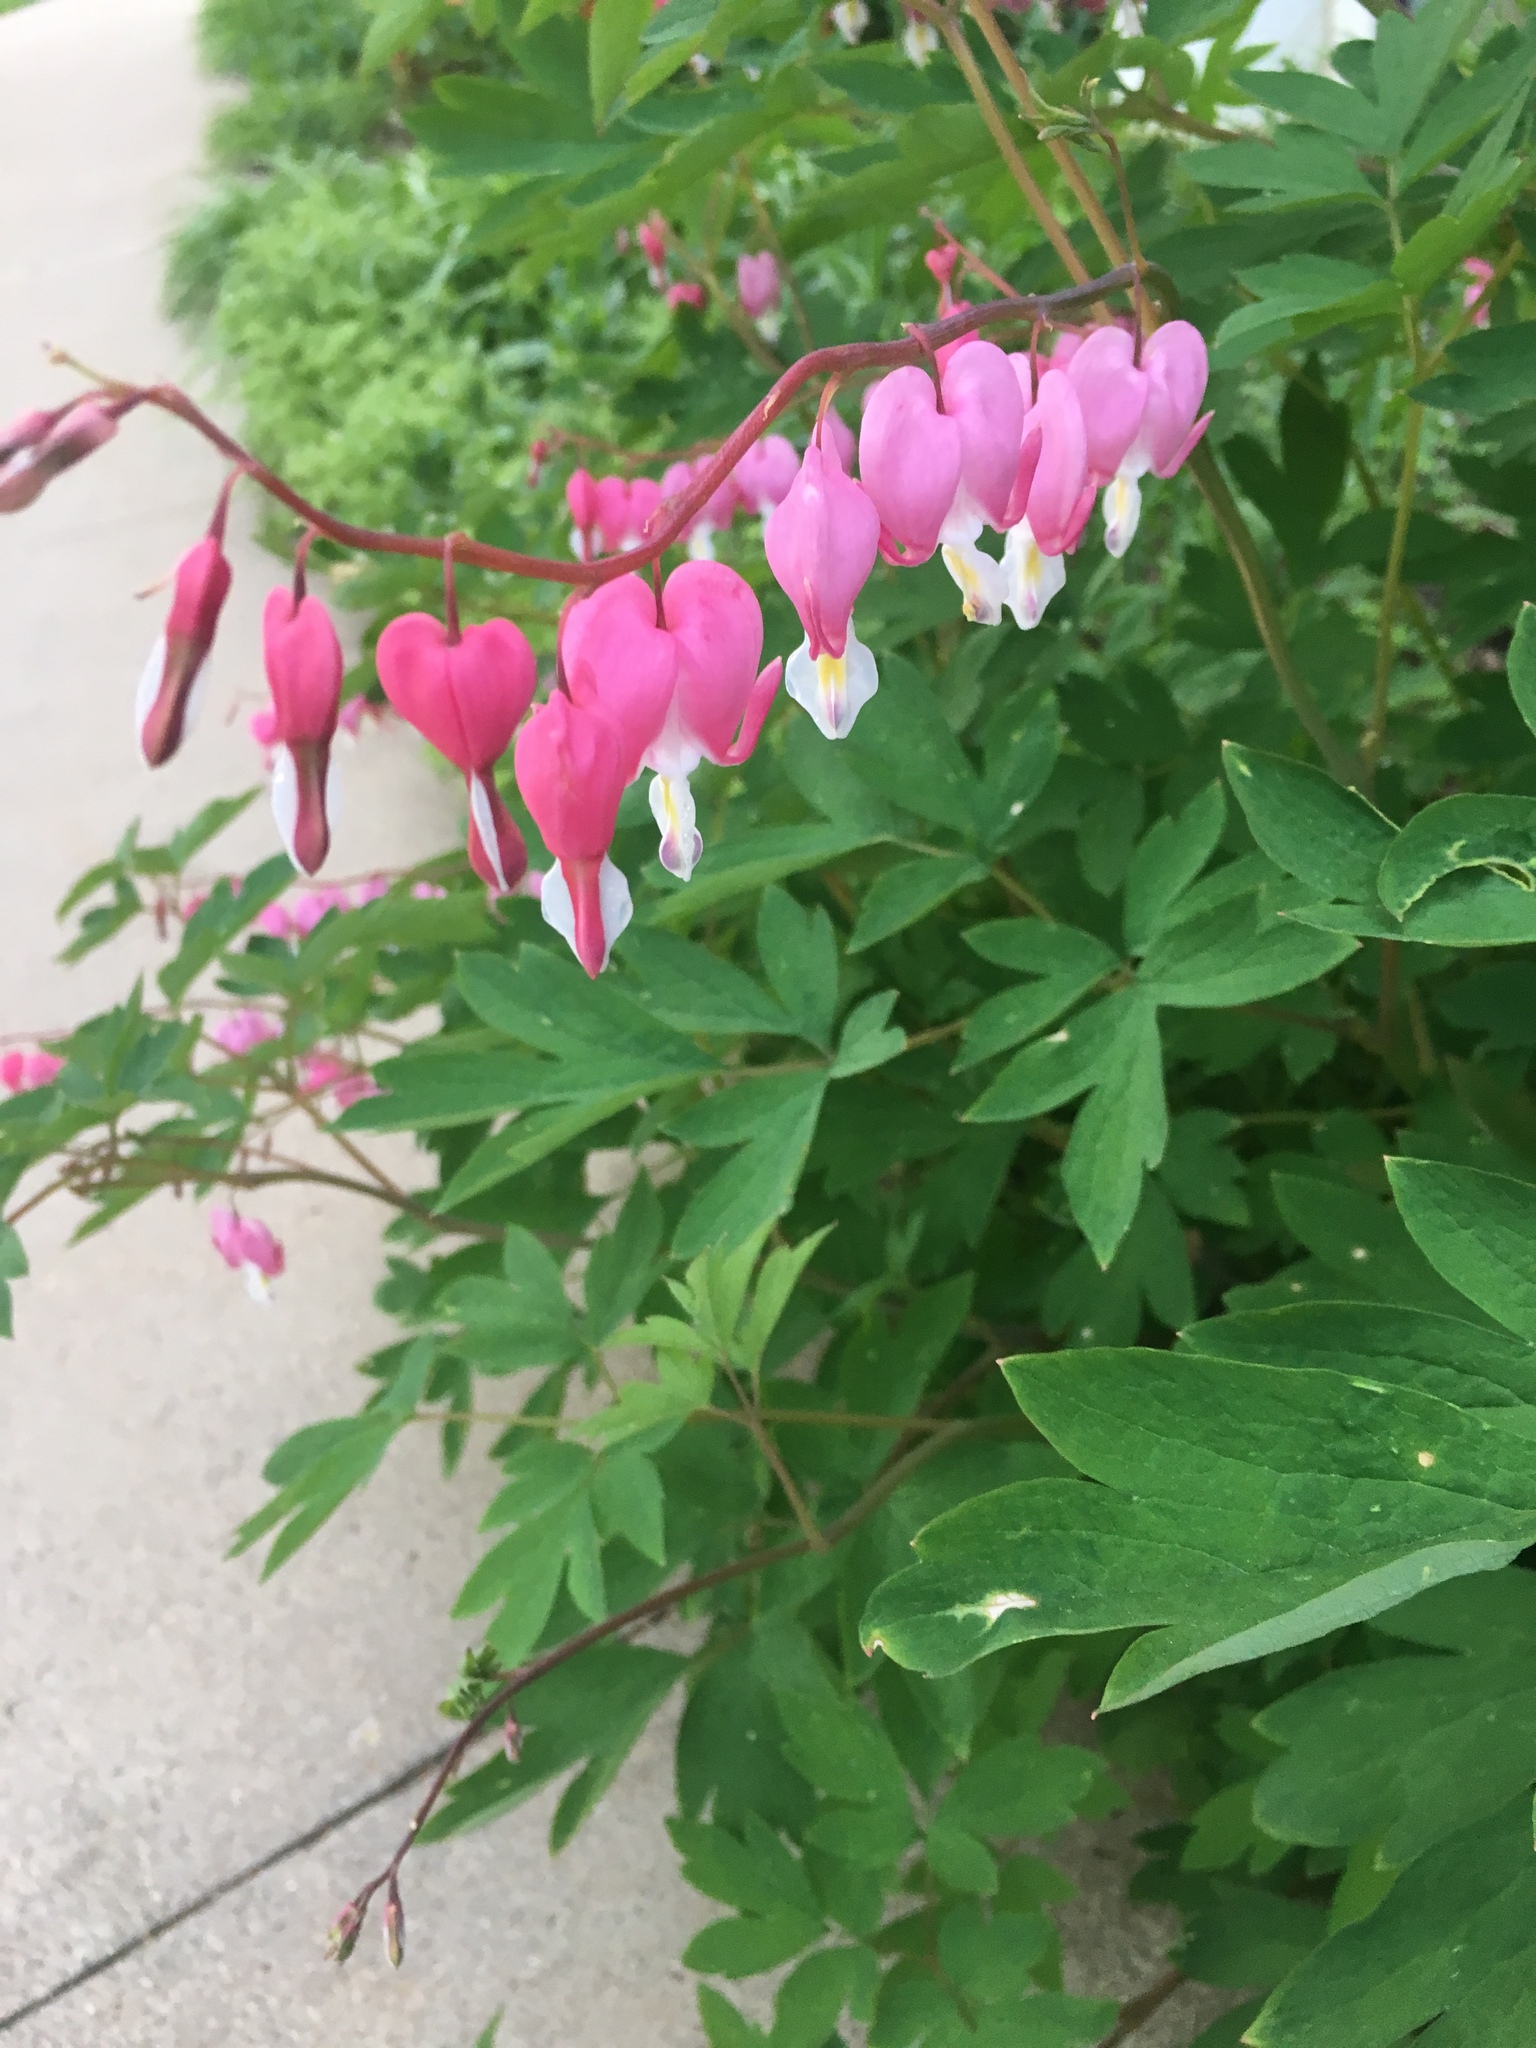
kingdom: Plantae
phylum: Tracheophyta
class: Magnoliopsida
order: Ranunculales
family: Papaveraceae
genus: Lamprocapnos
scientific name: Lamprocapnos spectabilis
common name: Asian bleeding-heart
